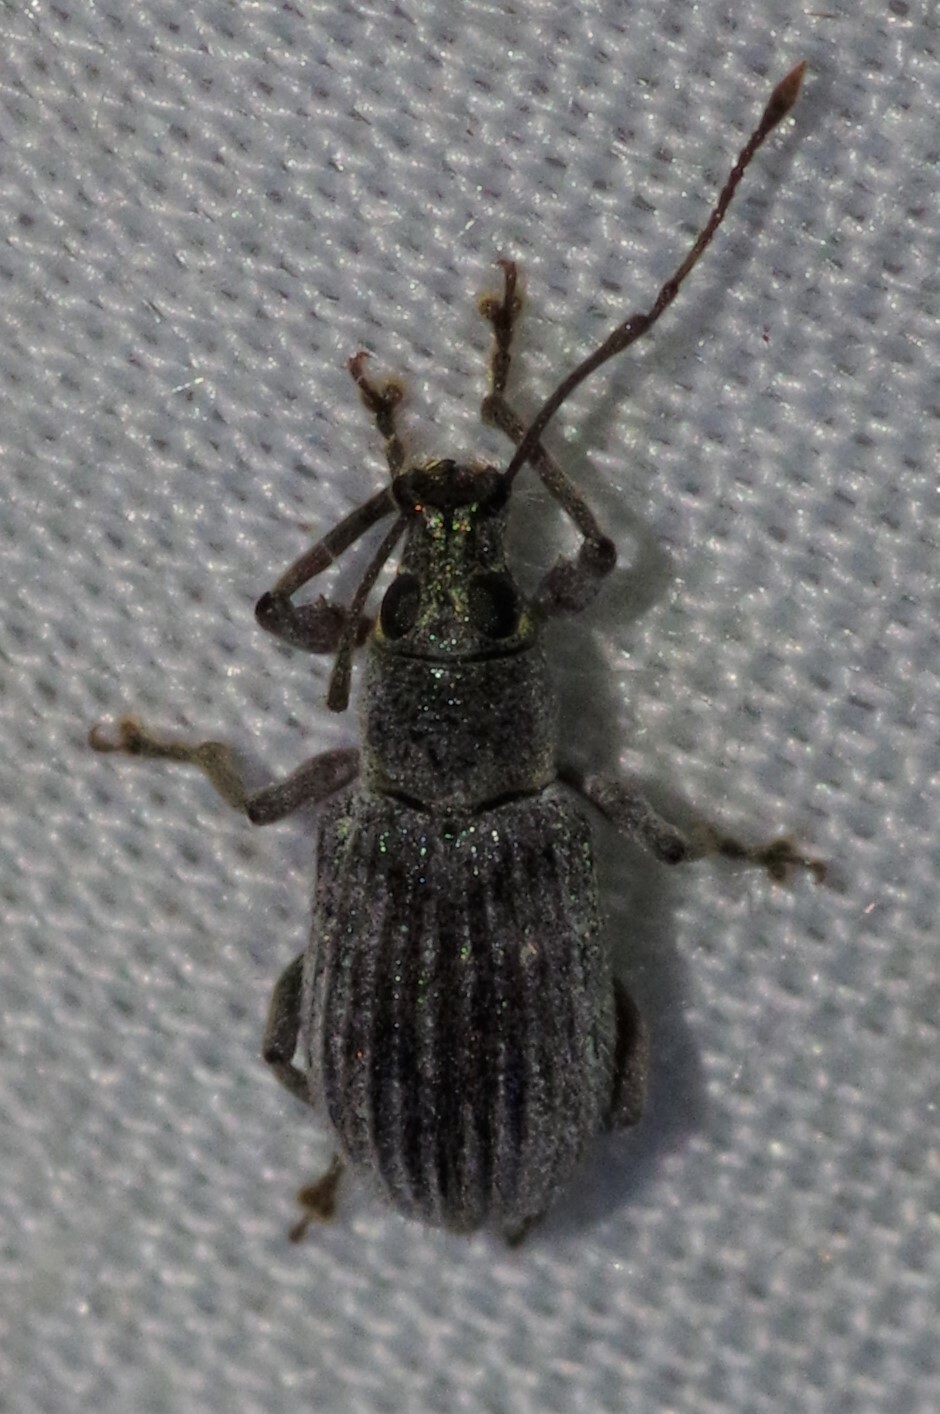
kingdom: Animalia
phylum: Arthropoda
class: Insecta
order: Coleoptera
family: Curculionidae
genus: Cyrtepistomus
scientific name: Cyrtepistomus castaneus
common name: Weevil
